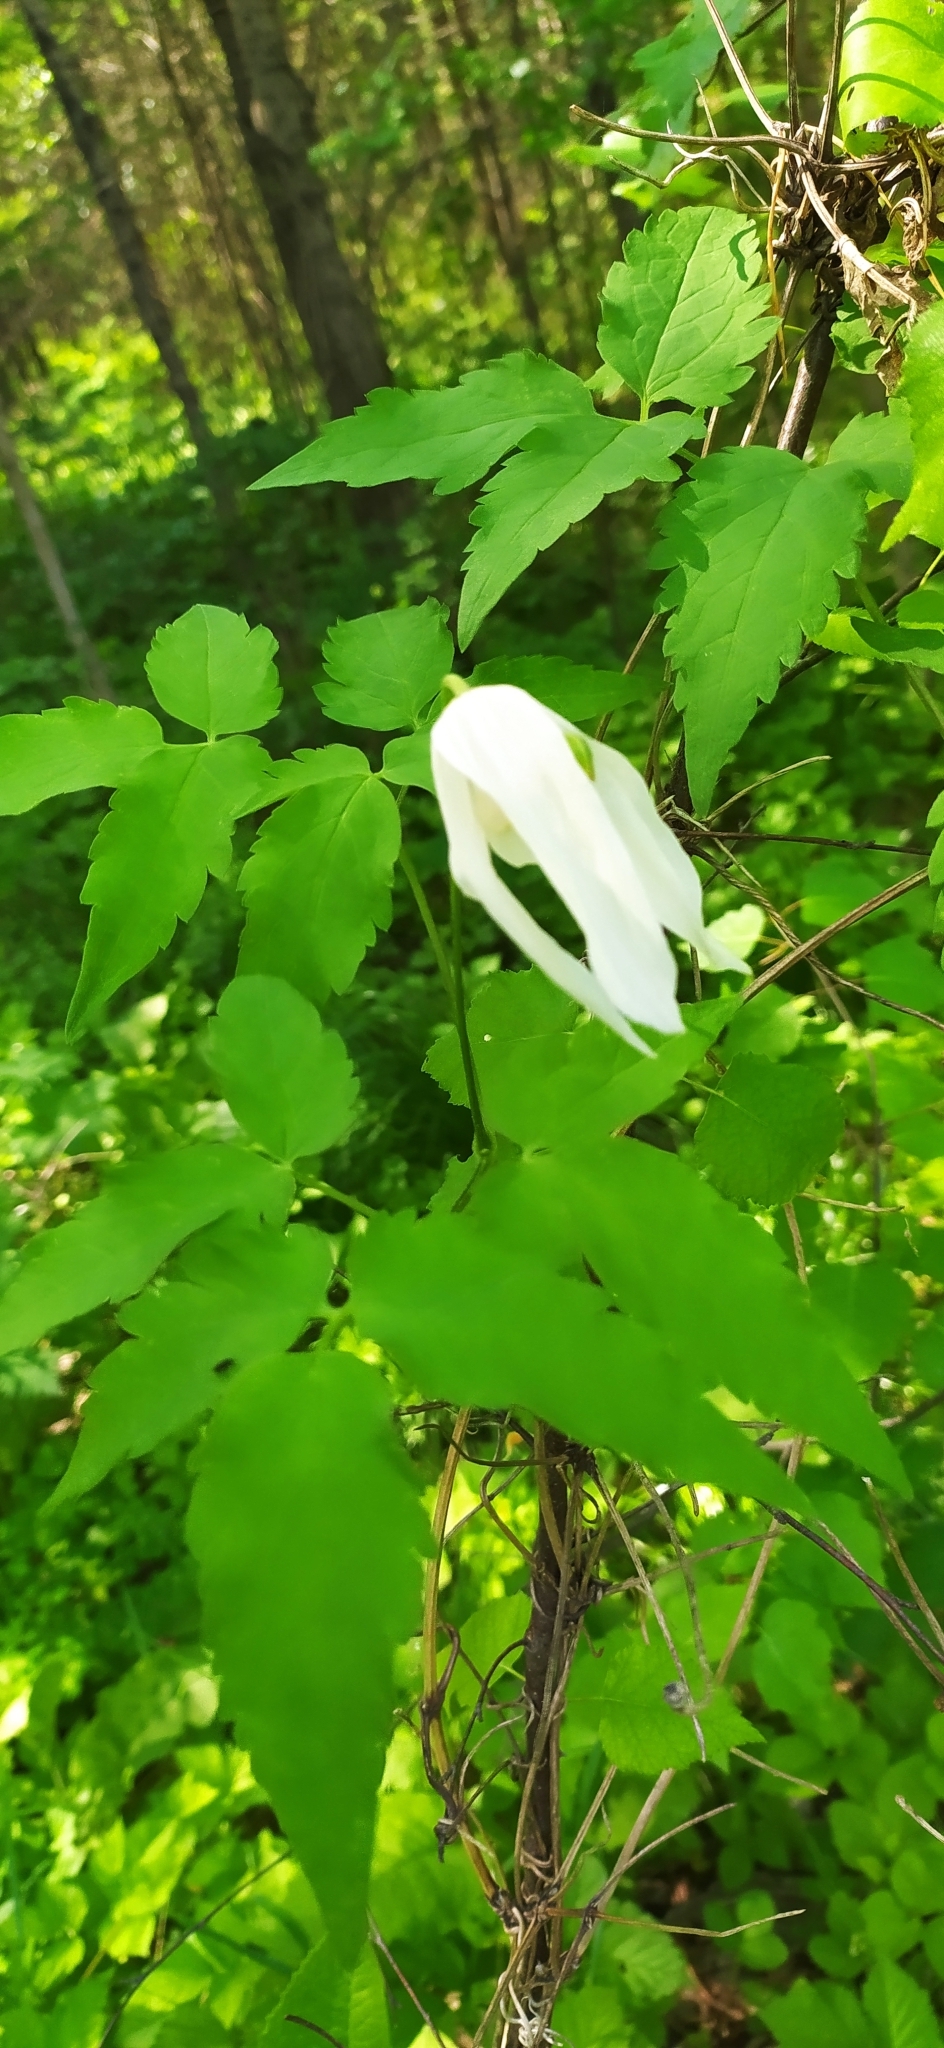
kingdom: Plantae
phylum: Tracheophyta
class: Magnoliopsida
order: Ranunculales
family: Ranunculaceae
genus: Clematis
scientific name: Clematis sibirica
